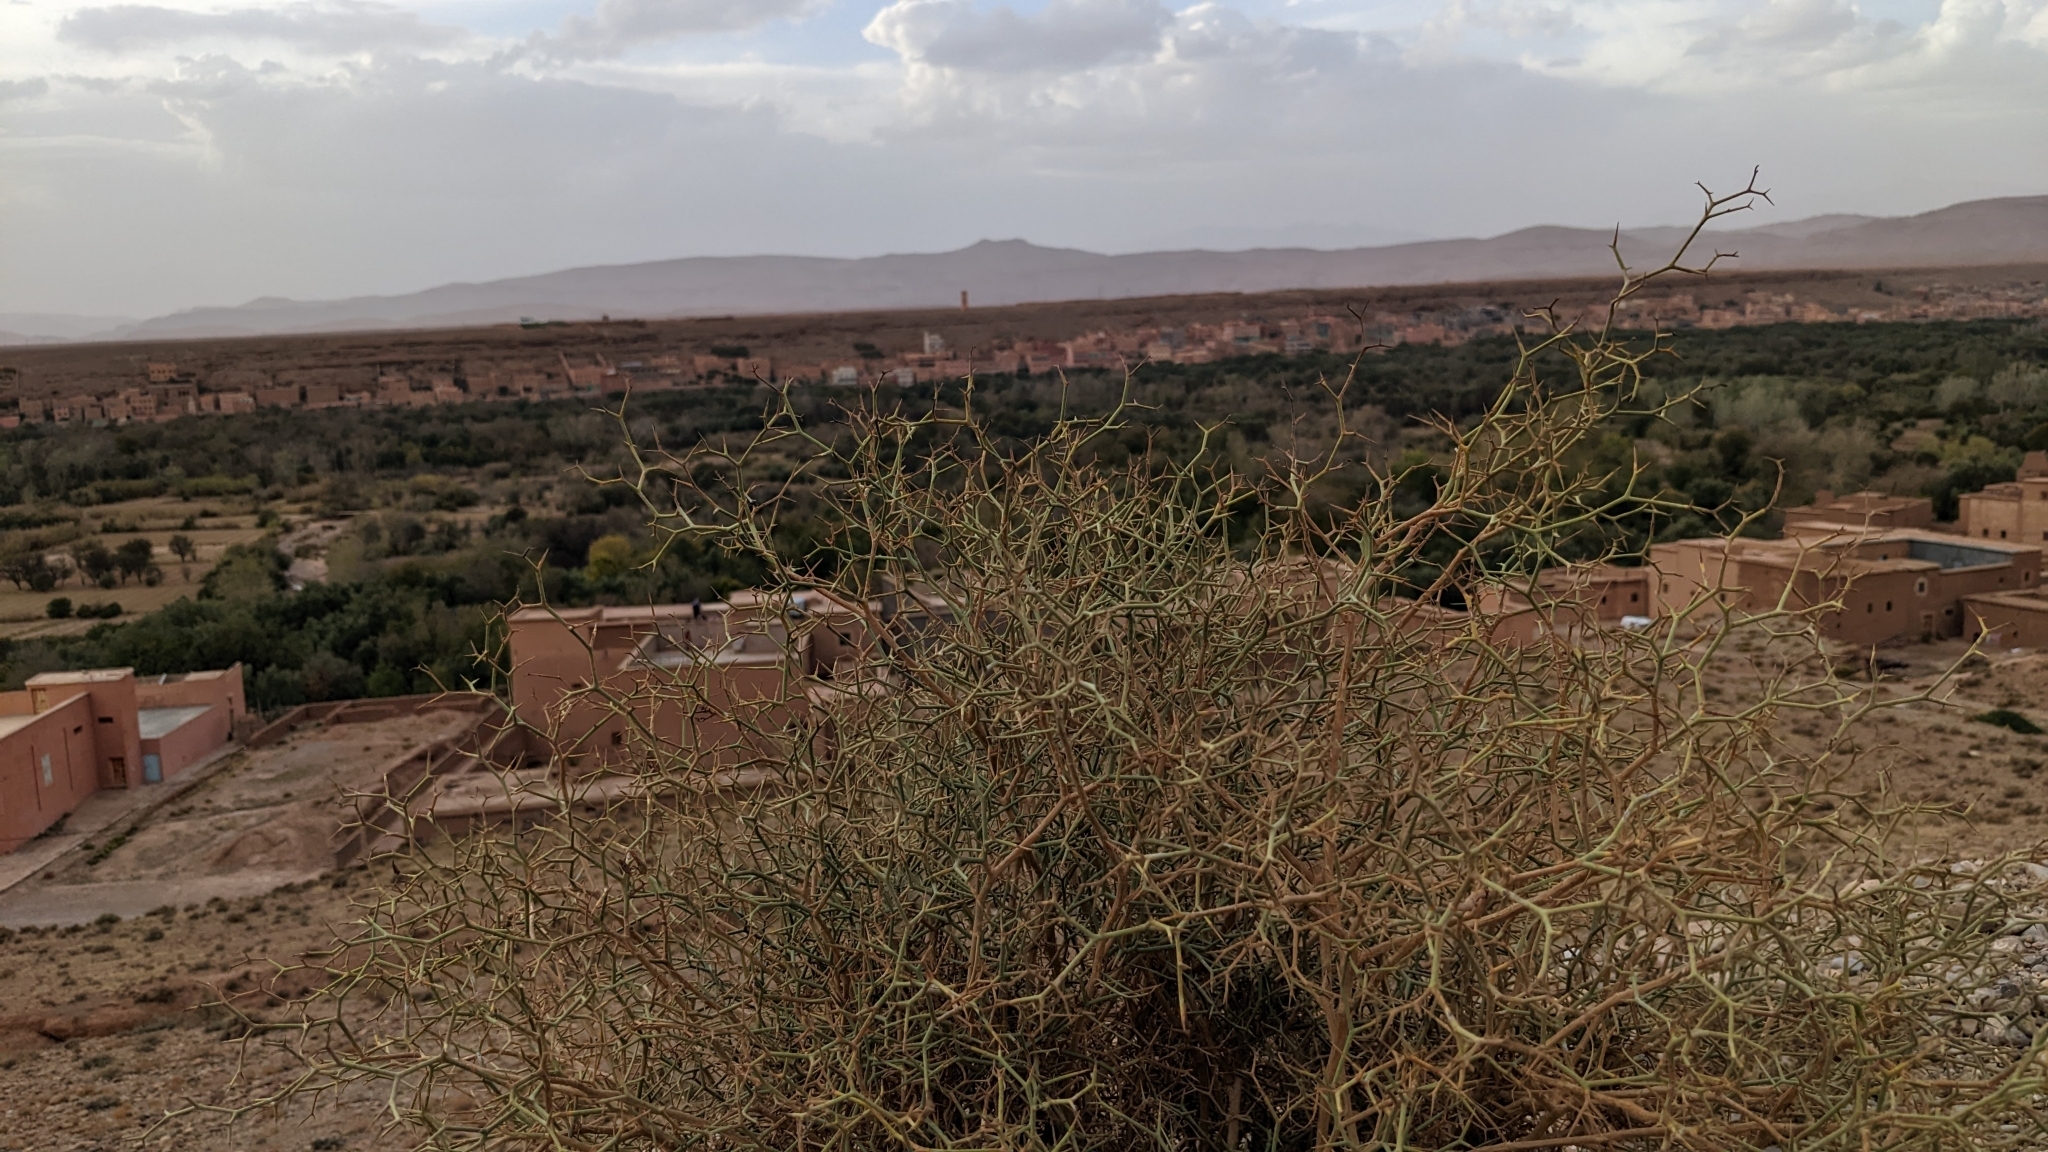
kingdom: Plantae
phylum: Tracheophyta
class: Magnoliopsida
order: Asterales
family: Asteraceae
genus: Launaea
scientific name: Launaea arborescens
